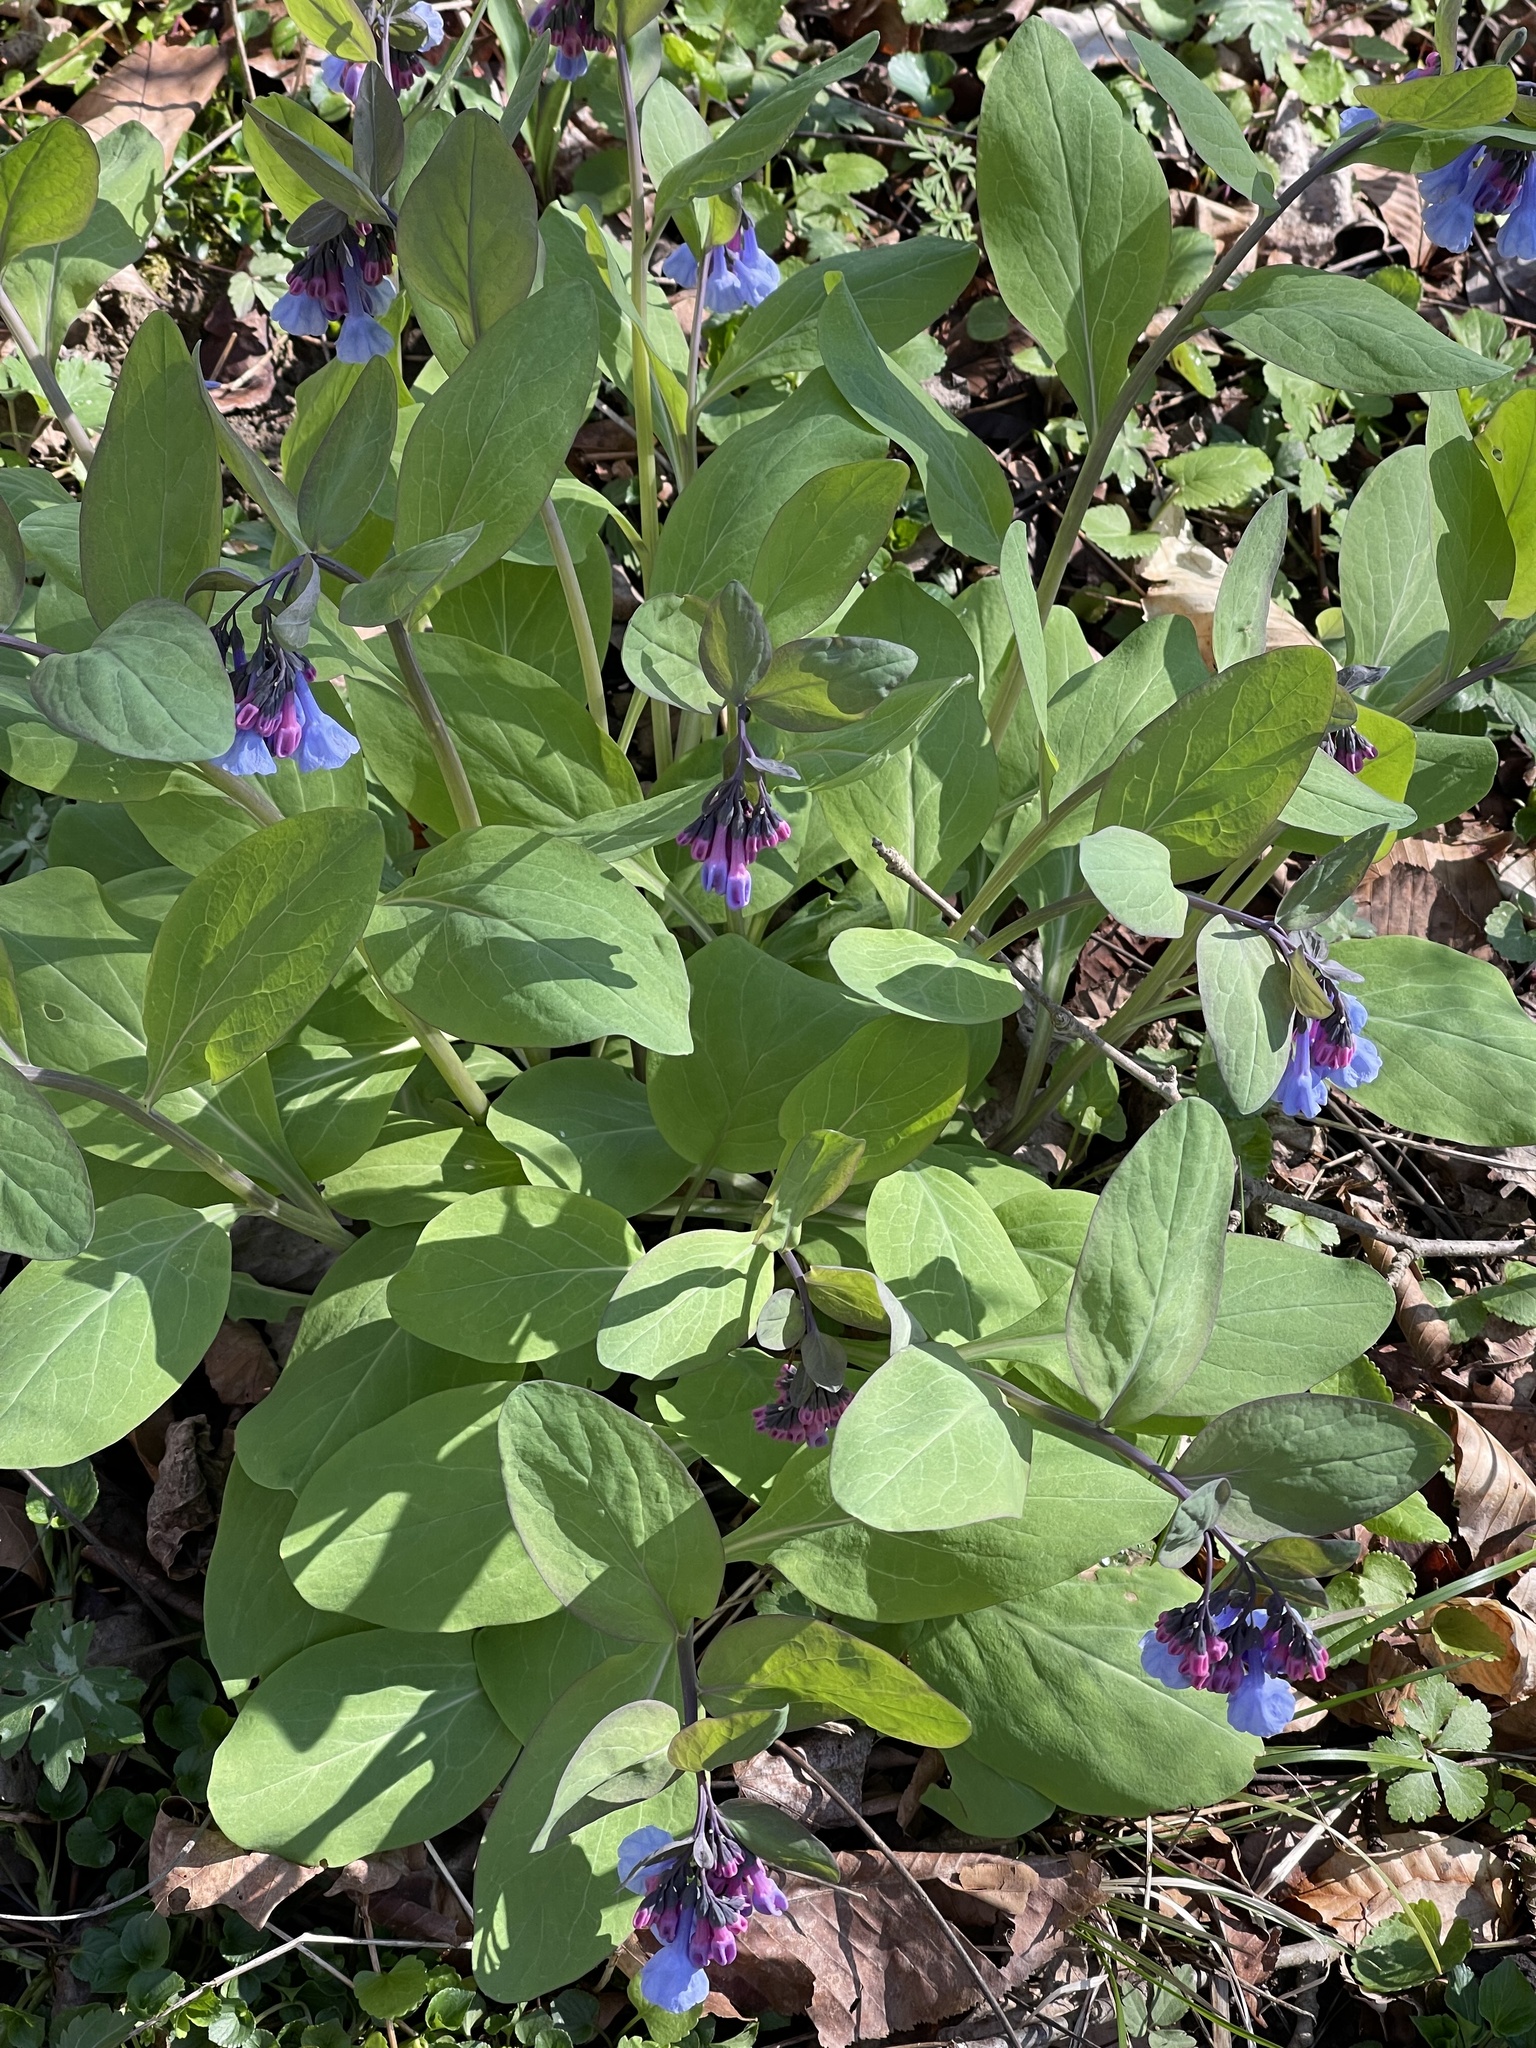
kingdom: Plantae
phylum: Tracheophyta
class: Magnoliopsida
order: Boraginales
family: Boraginaceae
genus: Mertensia
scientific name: Mertensia virginica
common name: Virginia bluebells
